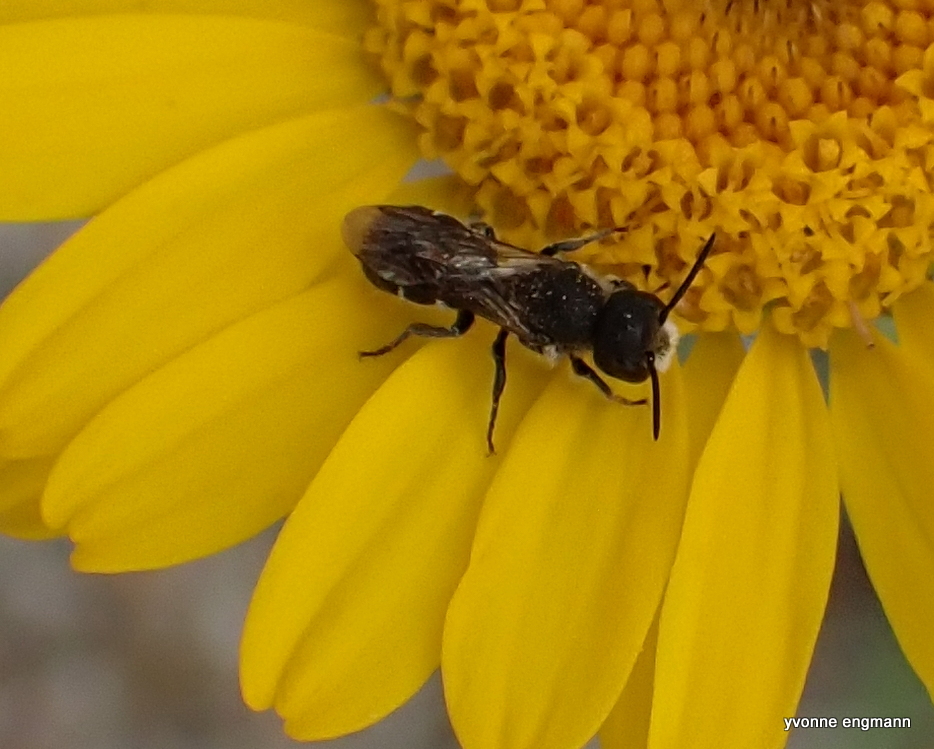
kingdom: Animalia
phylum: Arthropoda
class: Insecta
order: Hymenoptera
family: Megachilidae
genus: Heriades
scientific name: Heriades truncorum
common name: Ridge-saddled carpenter bee
